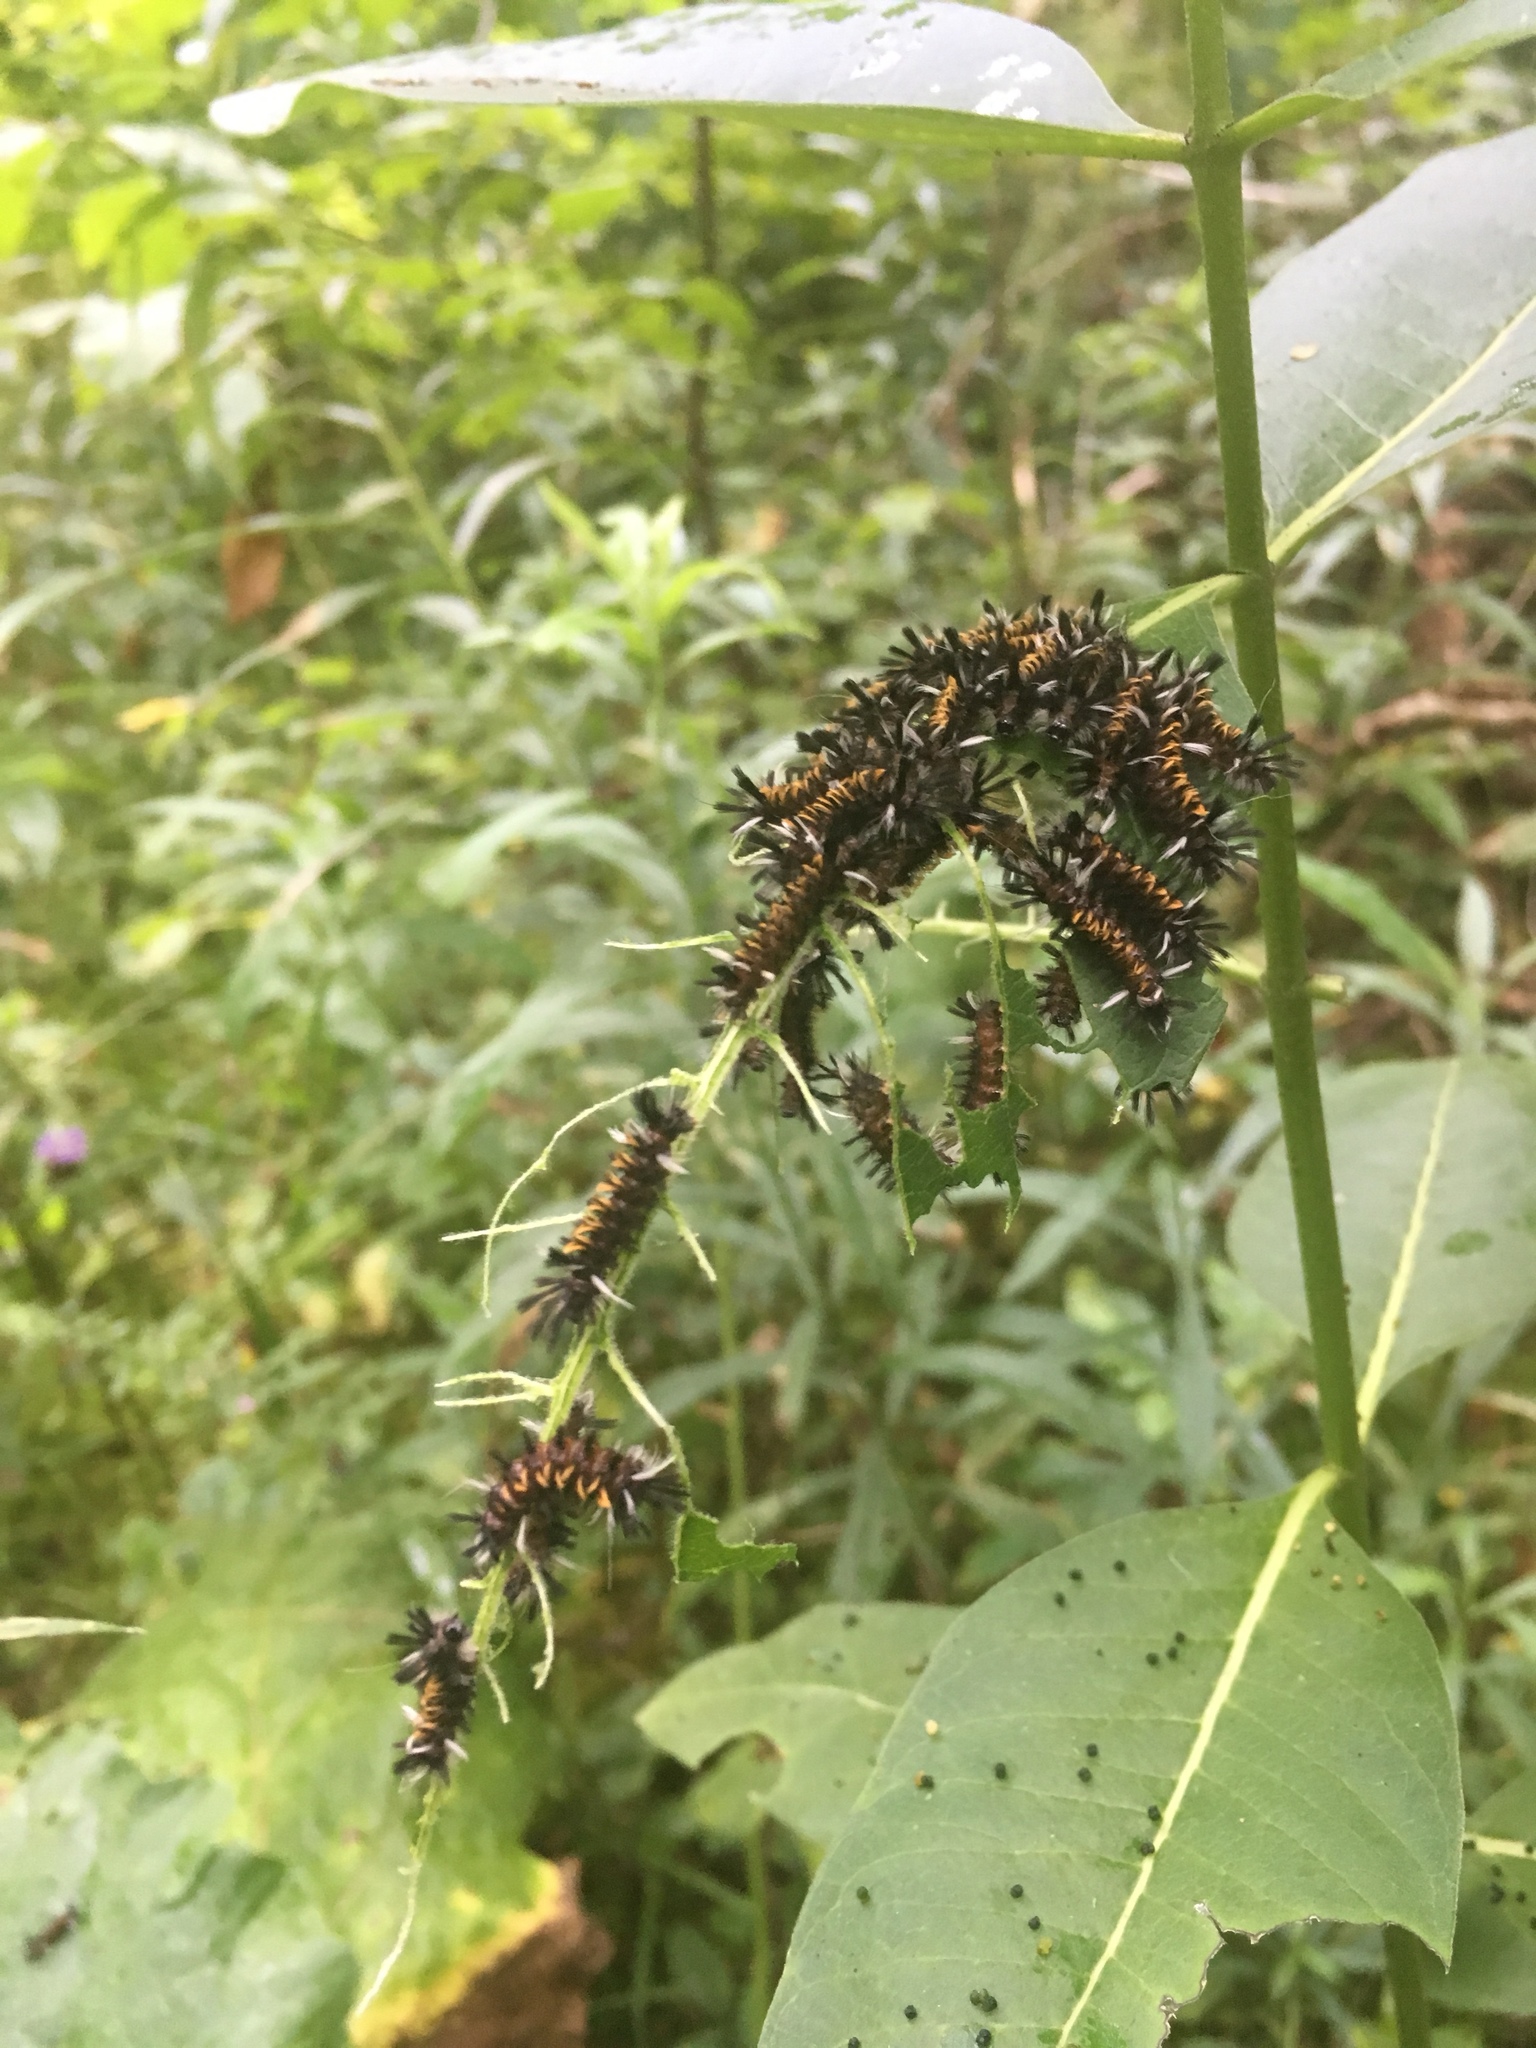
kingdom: Animalia
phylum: Arthropoda
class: Insecta
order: Lepidoptera
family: Erebidae
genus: Euchaetes
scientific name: Euchaetes egle
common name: Milkweed tussock moth
